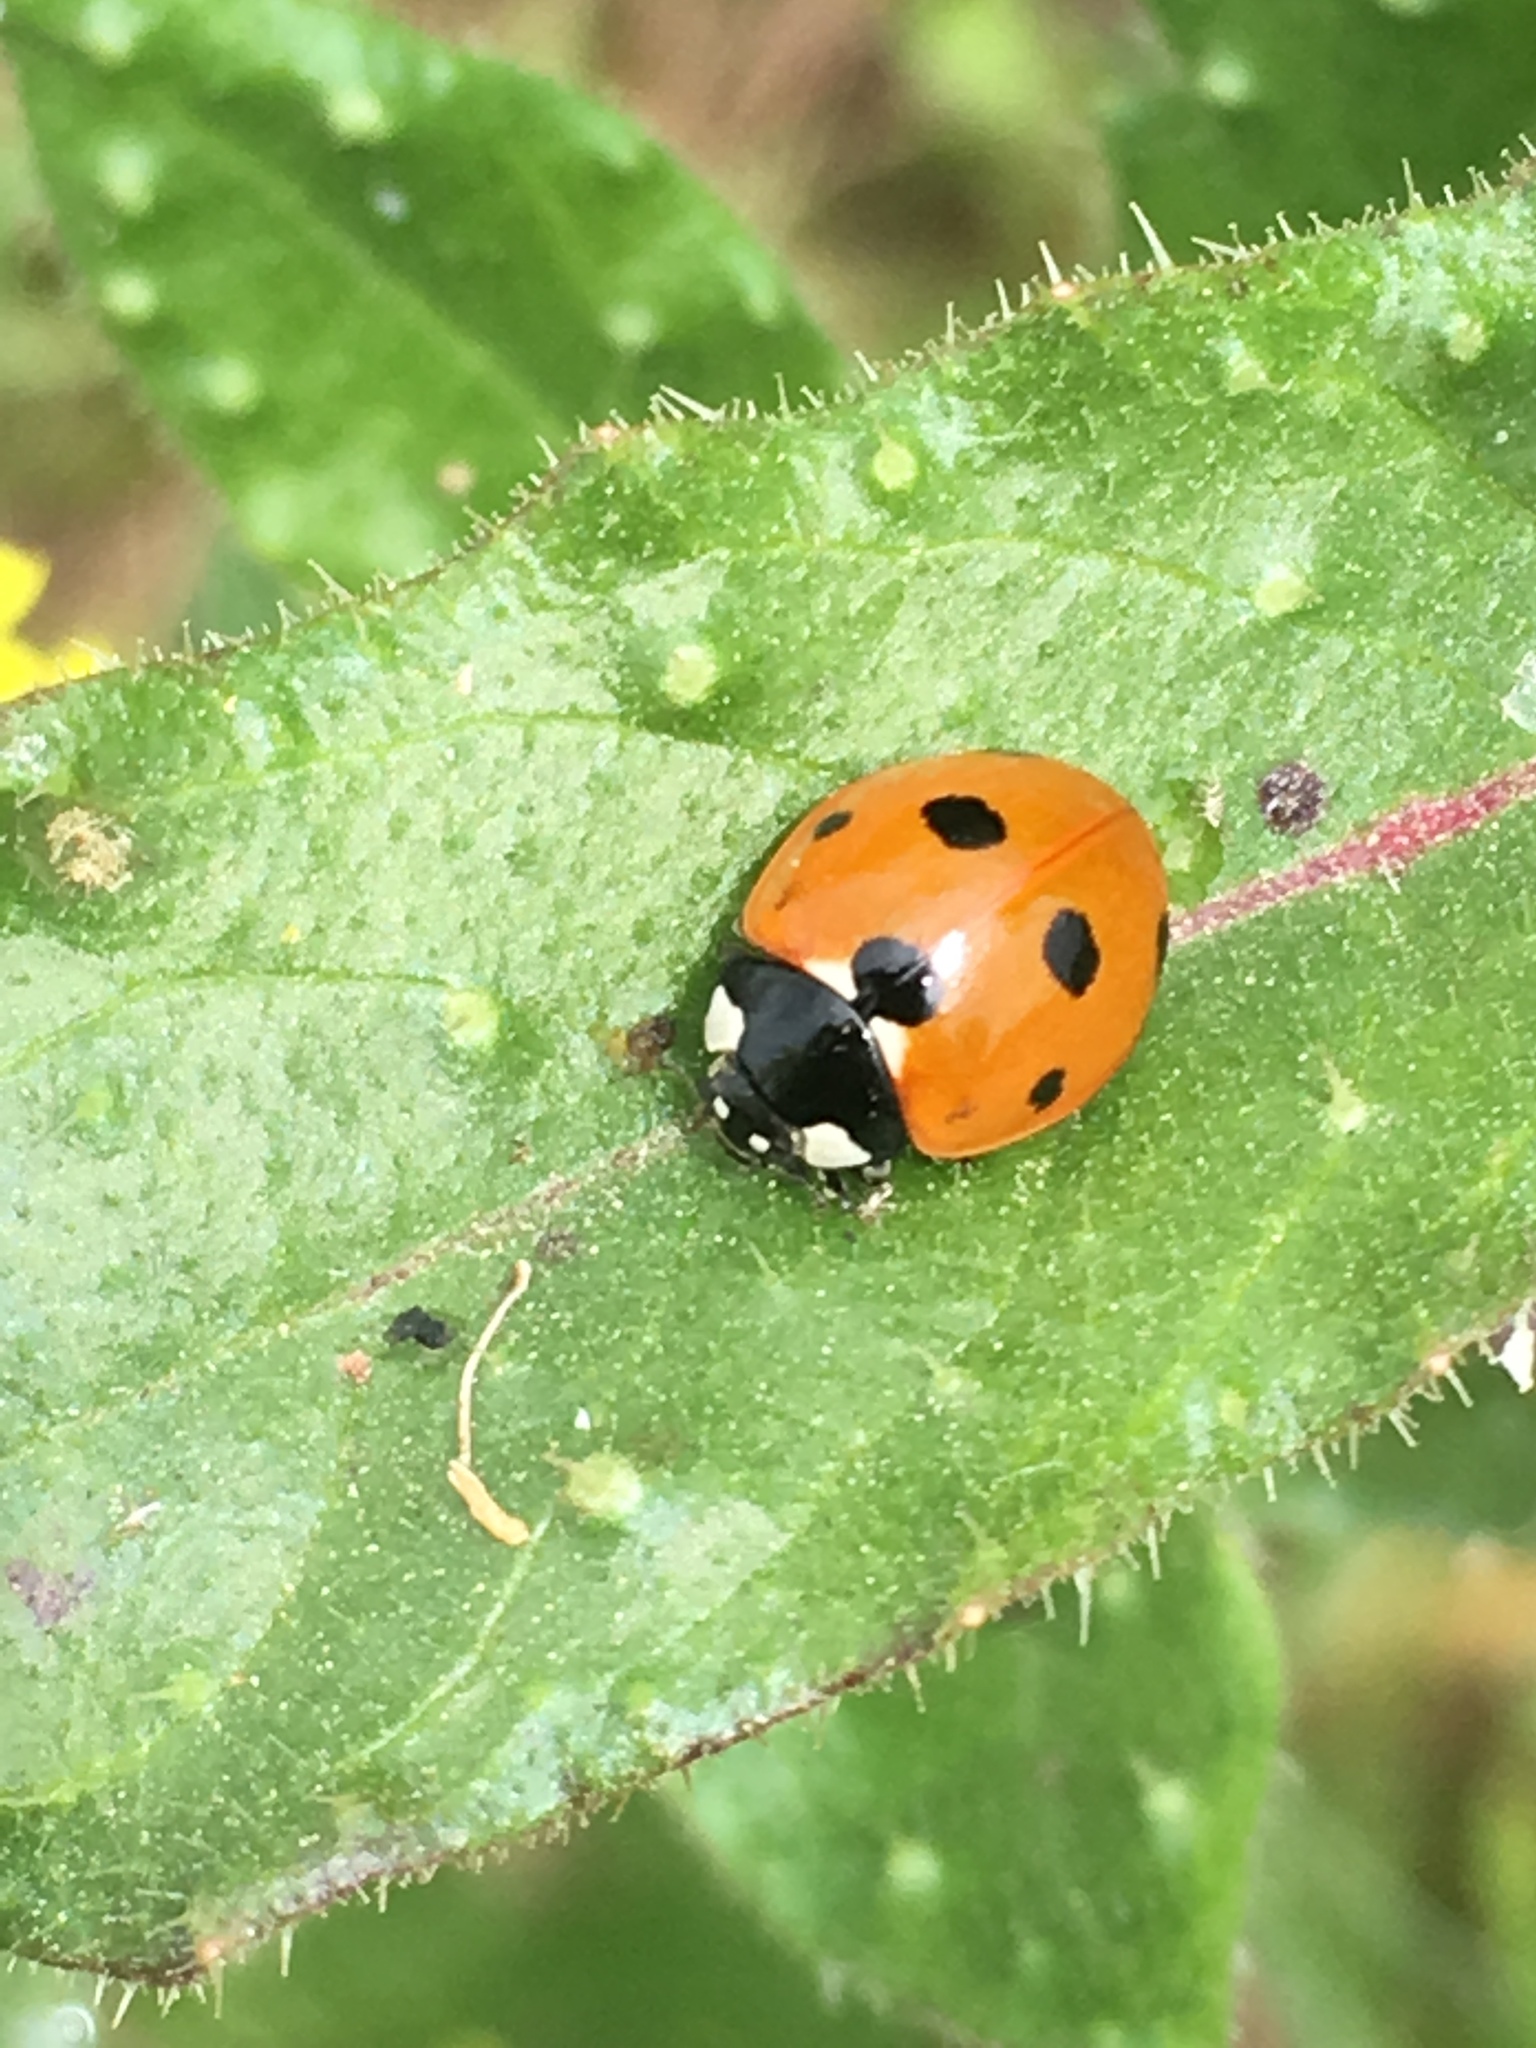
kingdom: Animalia
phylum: Arthropoda
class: Insecta
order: Coleoptera
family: Coccinellidae
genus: Coccinella
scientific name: Coccinella septempunctata
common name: Sevenspotted lady beetle
